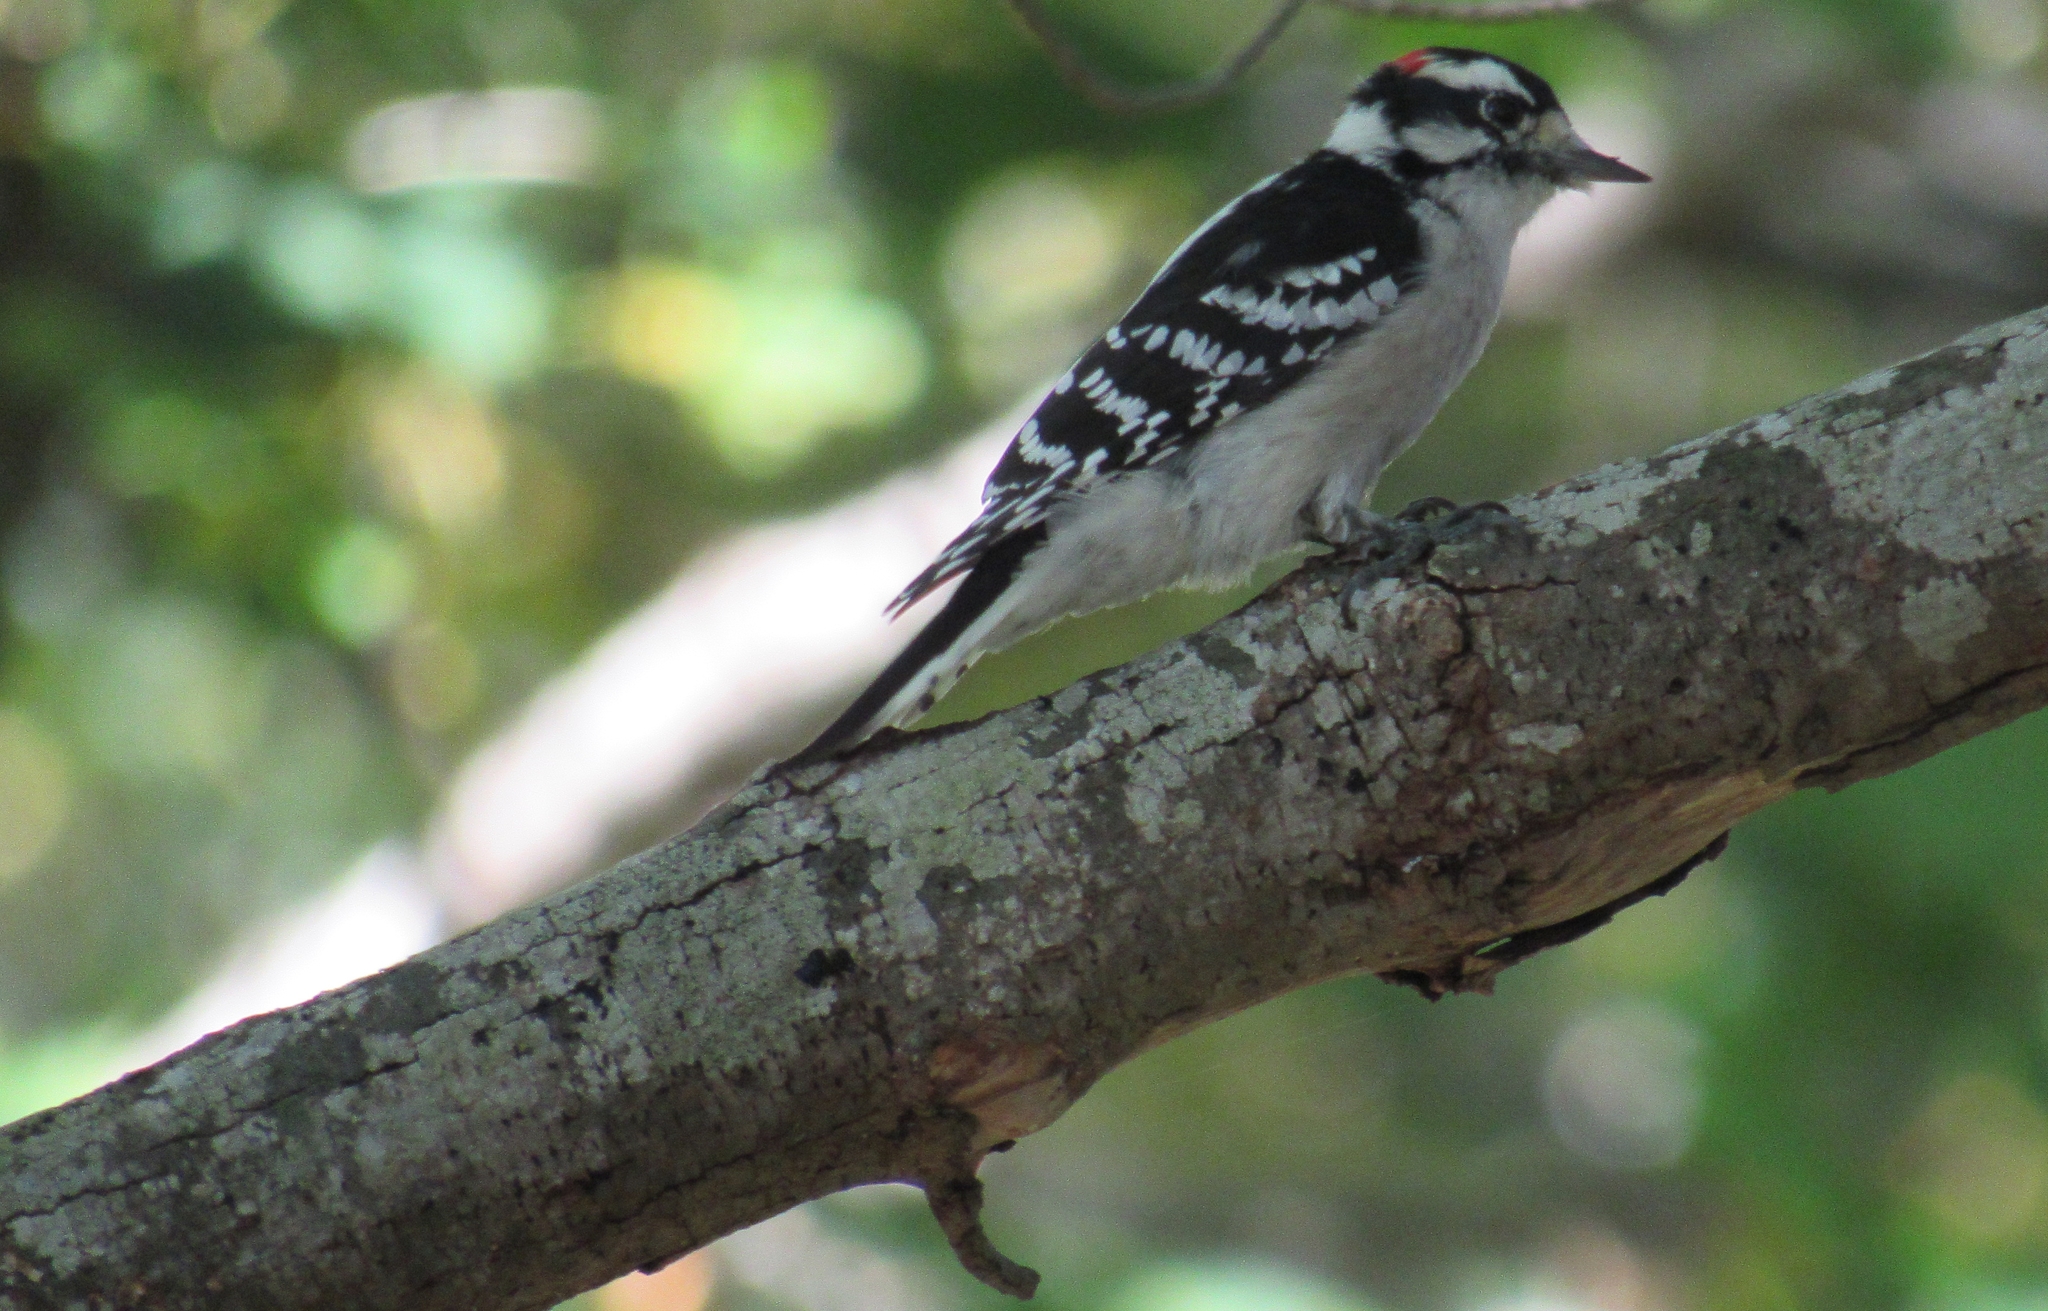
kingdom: Animalia
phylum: Chordata
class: Aves
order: Piciformes
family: Picidae
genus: Dryobates
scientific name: Dryobates pubescens
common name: Downy woodpecker
